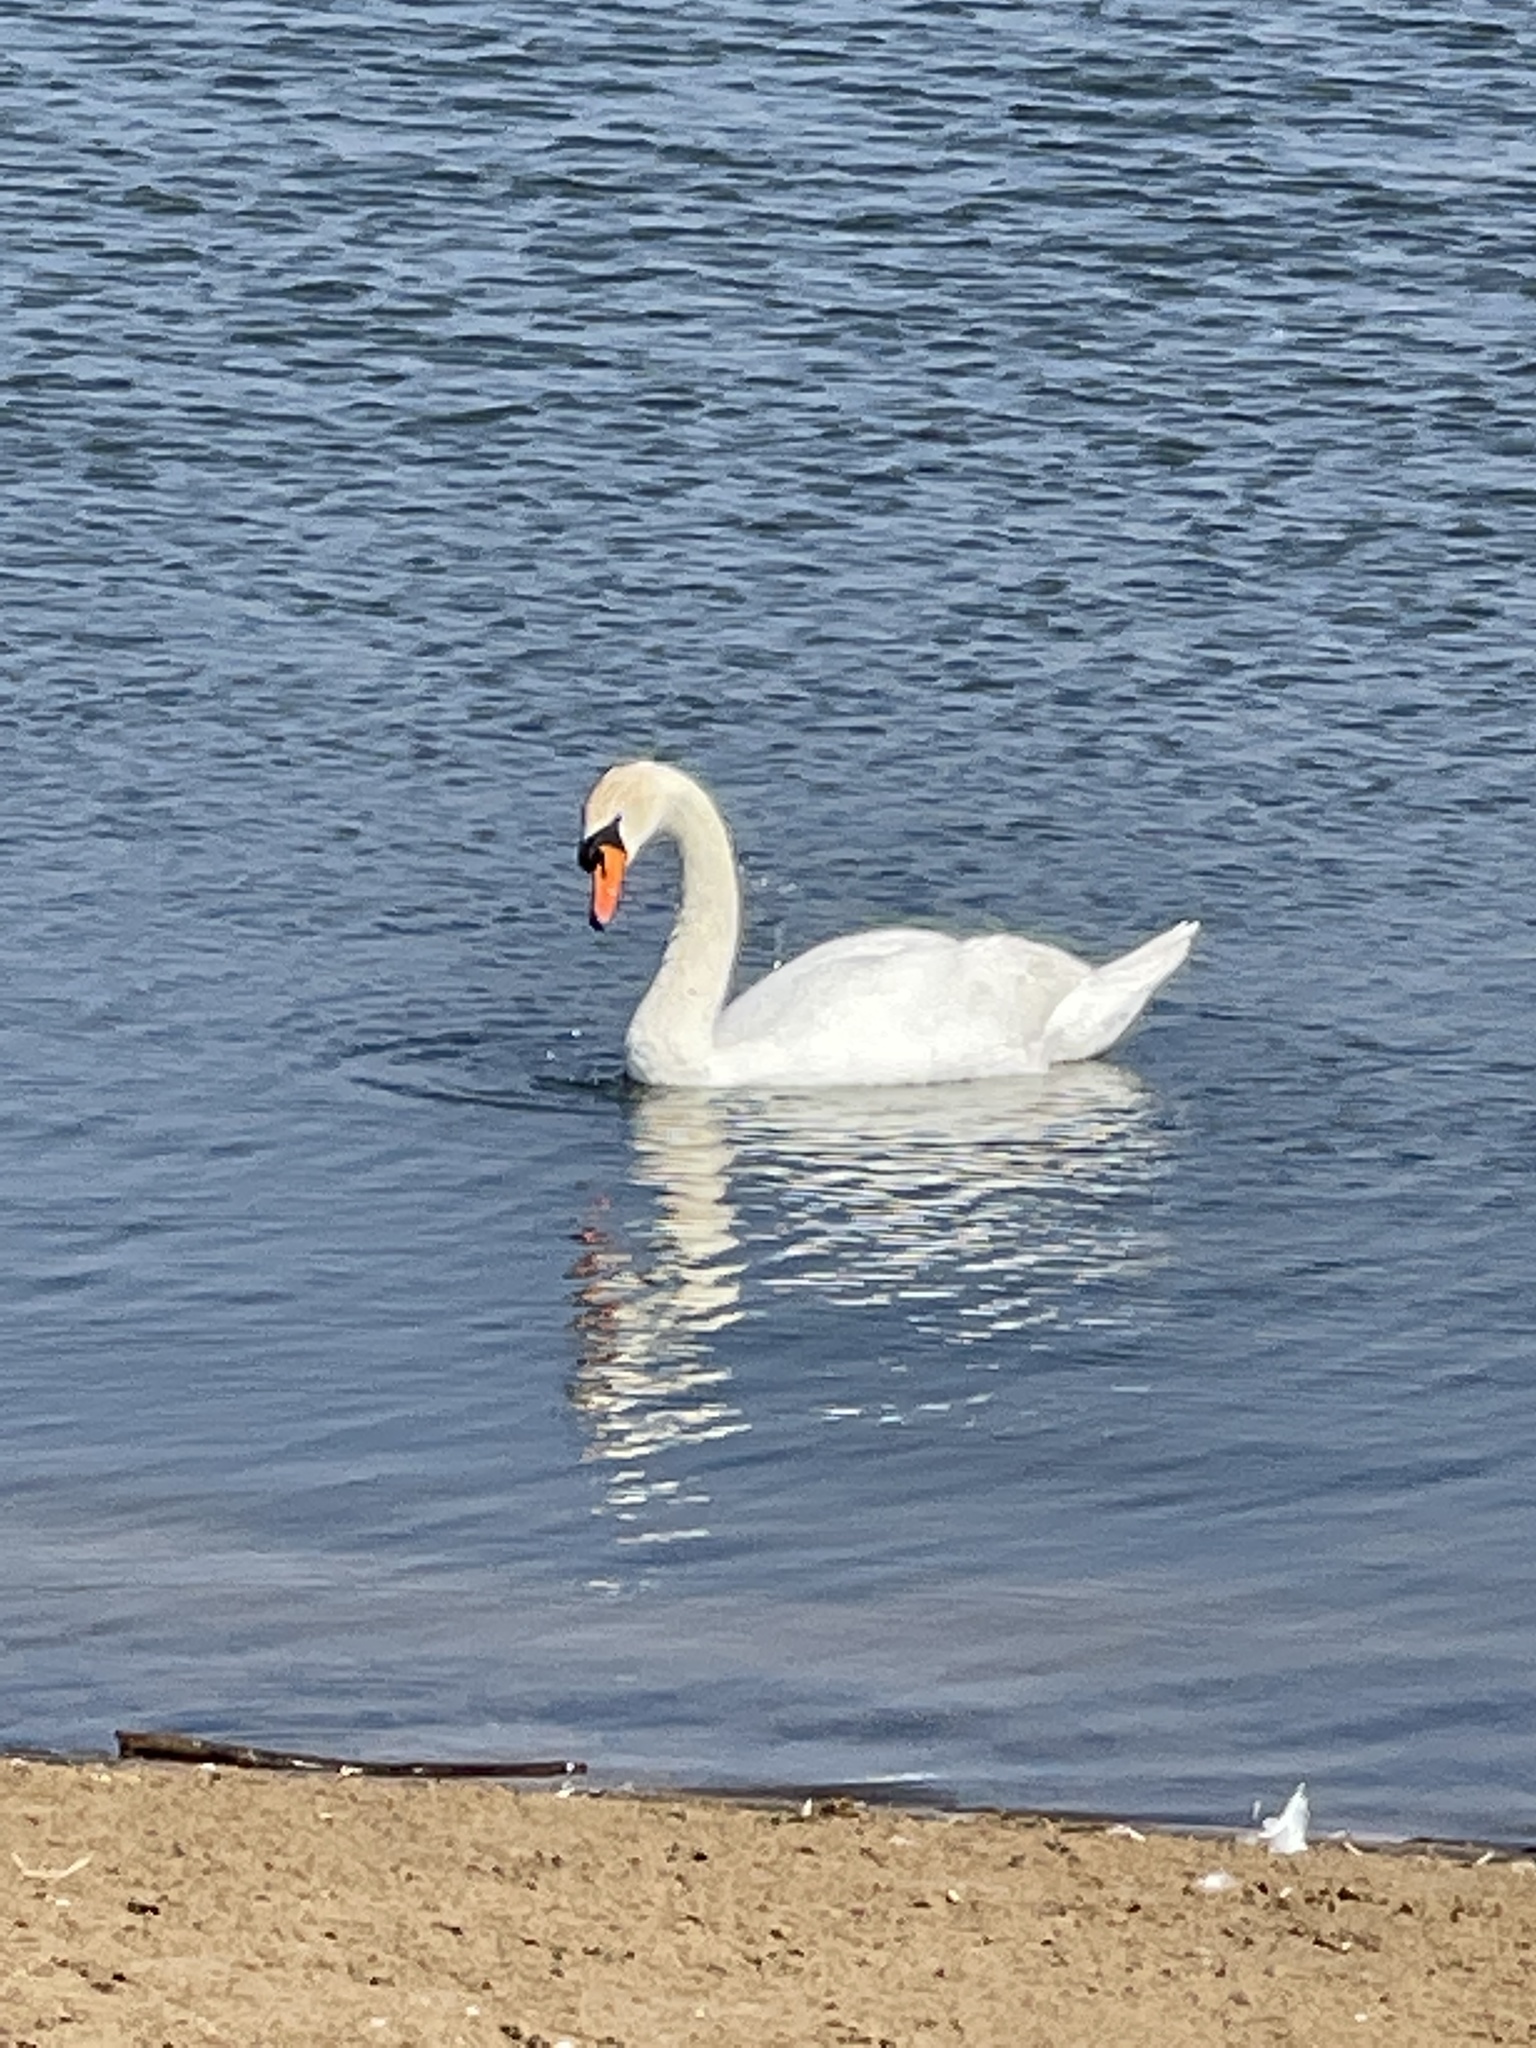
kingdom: Animalia
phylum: Chordata
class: Aves
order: Anseriformes
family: Anatidae
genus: Cygnus
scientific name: Cygnus olor
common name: Mute swan
